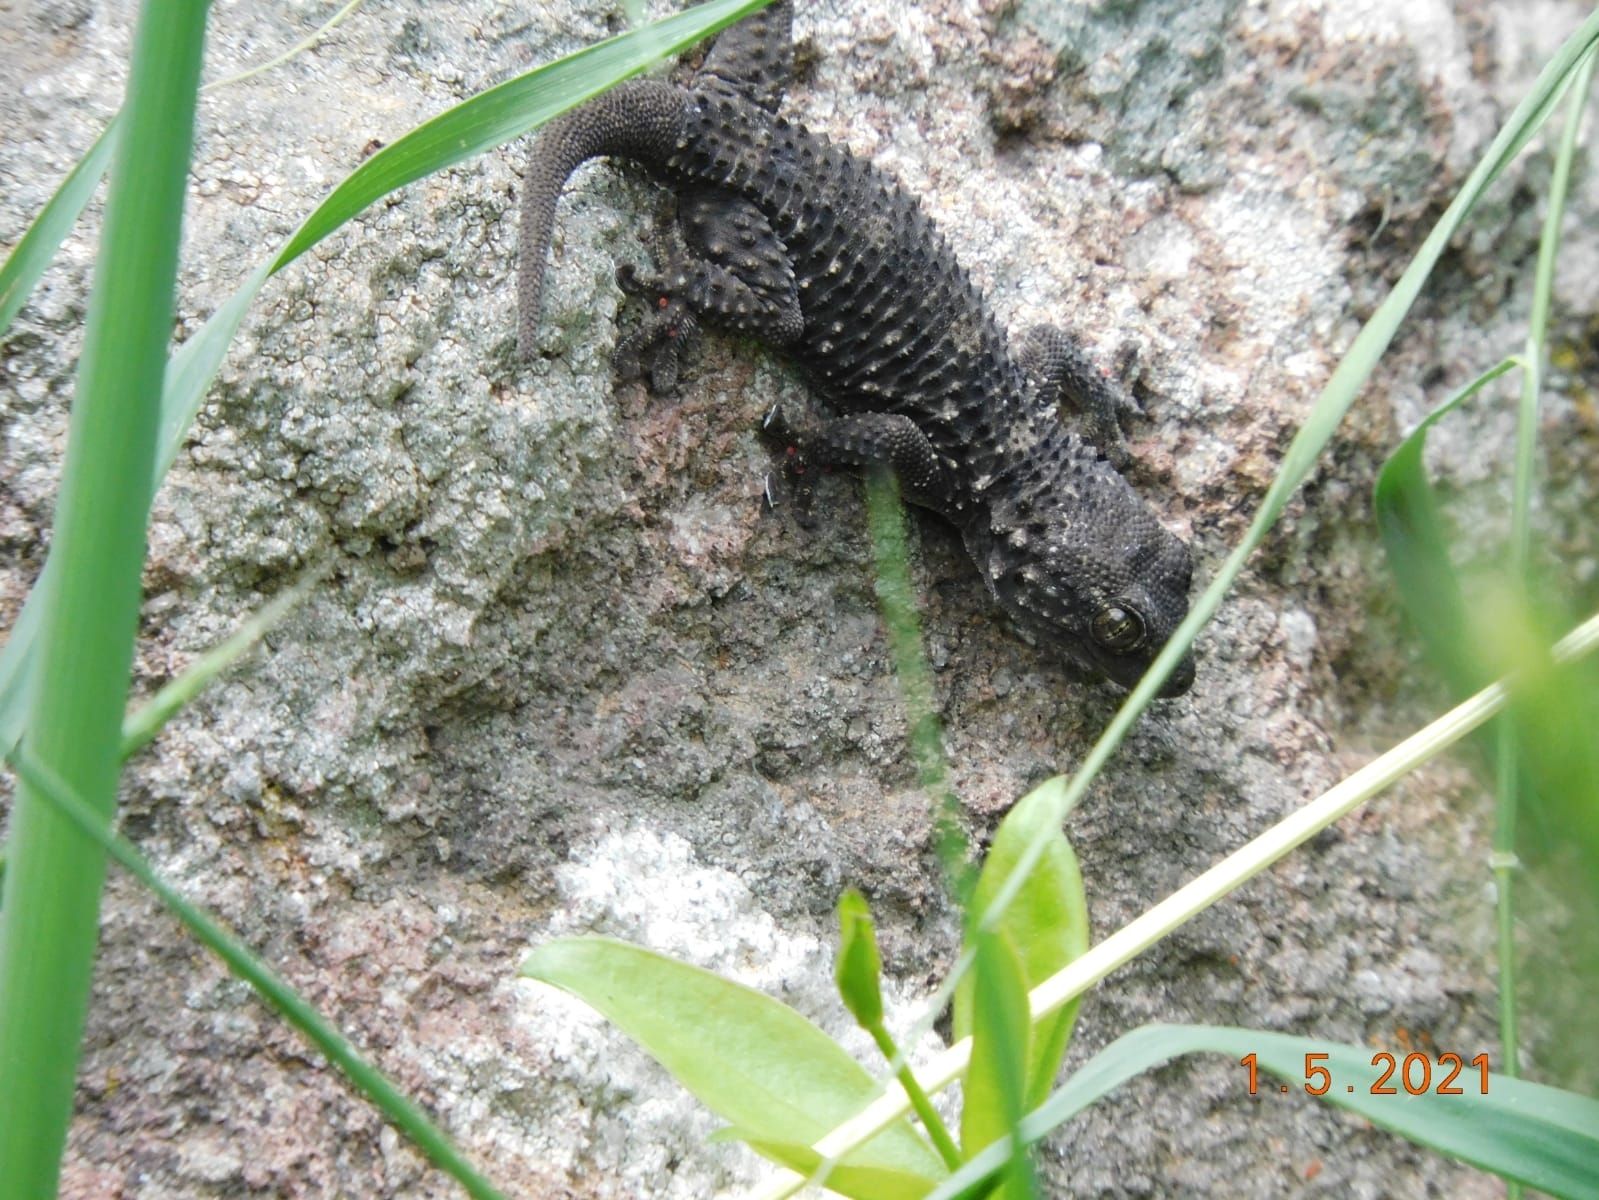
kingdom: Animalia
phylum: Chordata
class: Squamata
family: Phyllodactylidae
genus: Tarentola
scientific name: Tarentola mauritanica
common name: Moorish gecko
